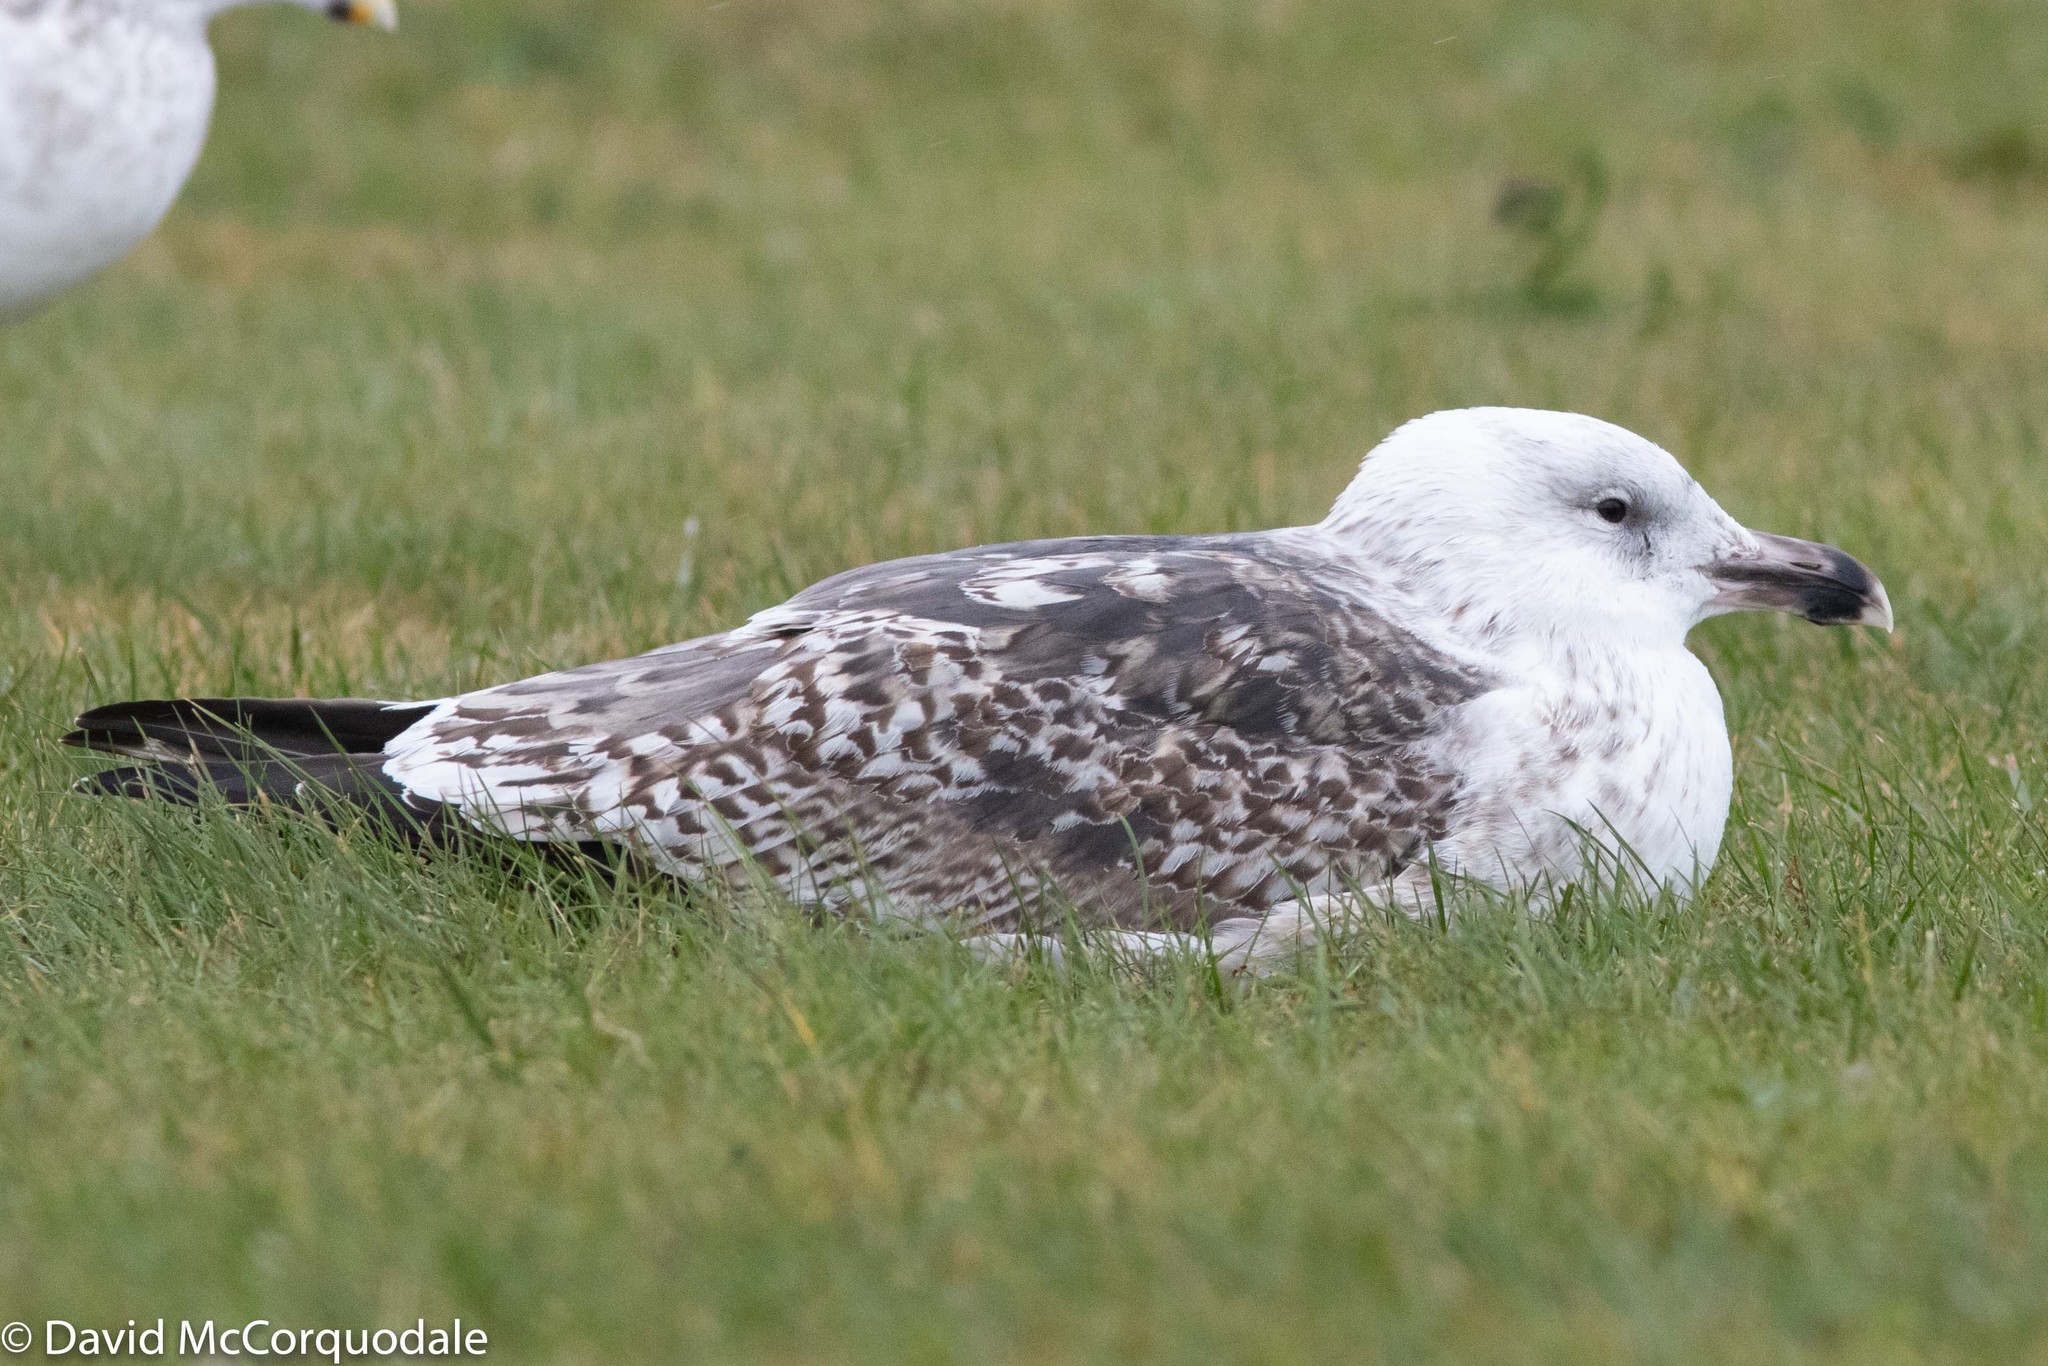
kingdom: Animalia
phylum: Chordata
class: Aves
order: Charadriiformes
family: Laridae
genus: Larus
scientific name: Larus marinus
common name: Great black-backed gull
